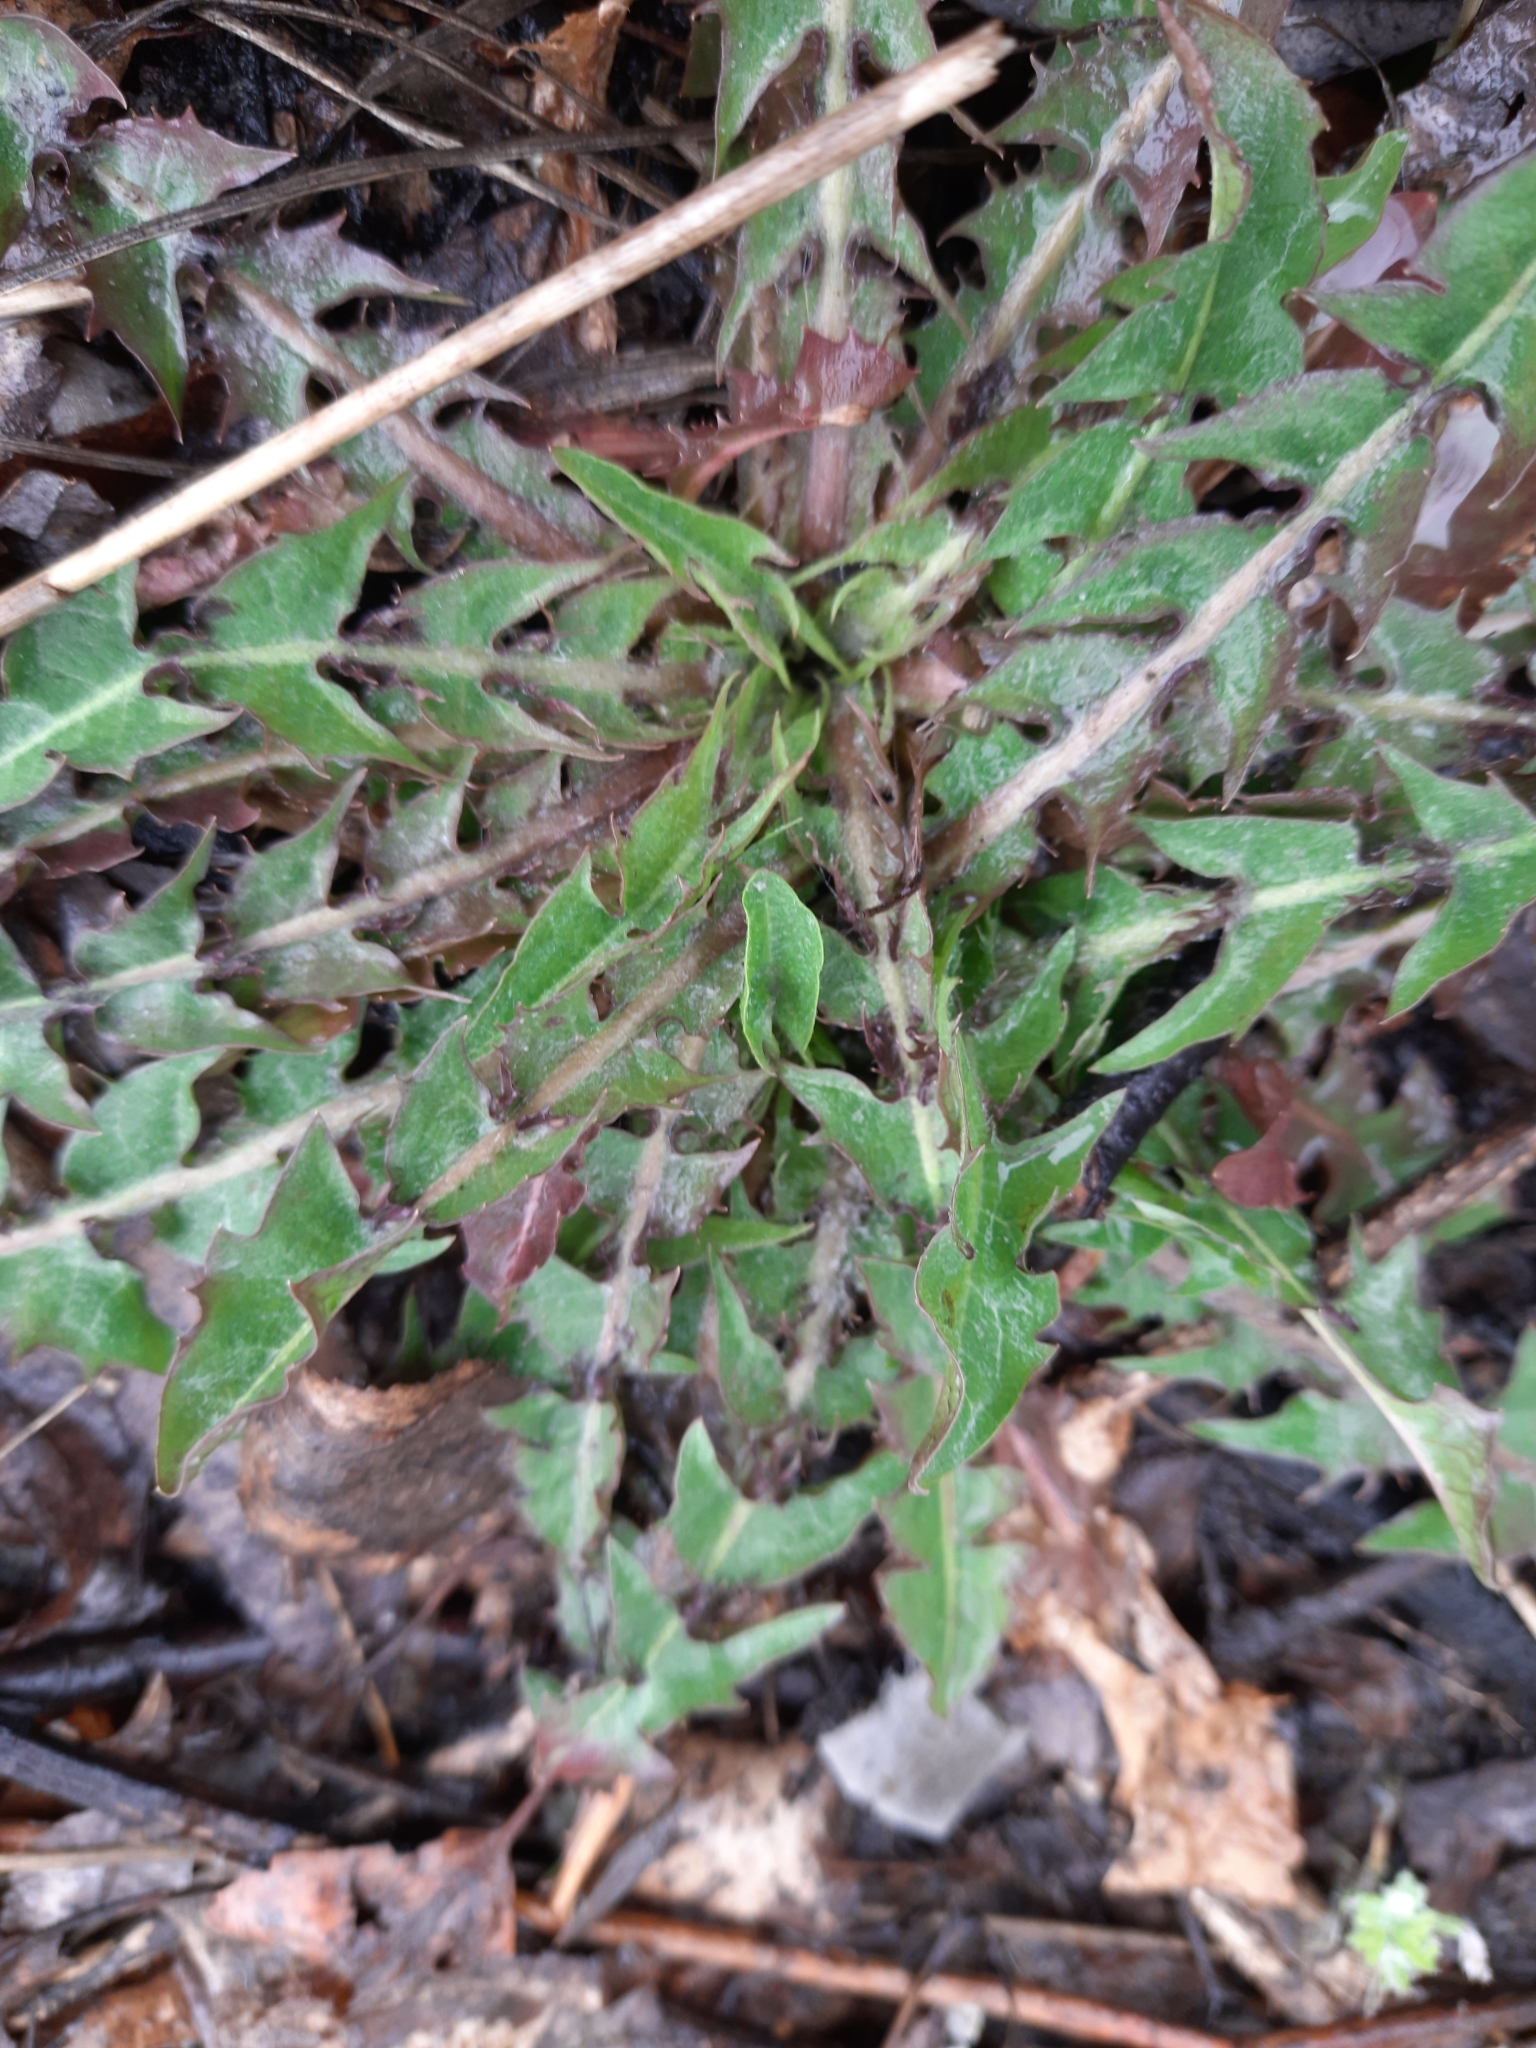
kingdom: Plantae
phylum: Tracheophyta
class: Magnoliopsida
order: Asterales
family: Asteraceae
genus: Taraxacum
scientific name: Taraxacum officinale
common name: Common dandelion
